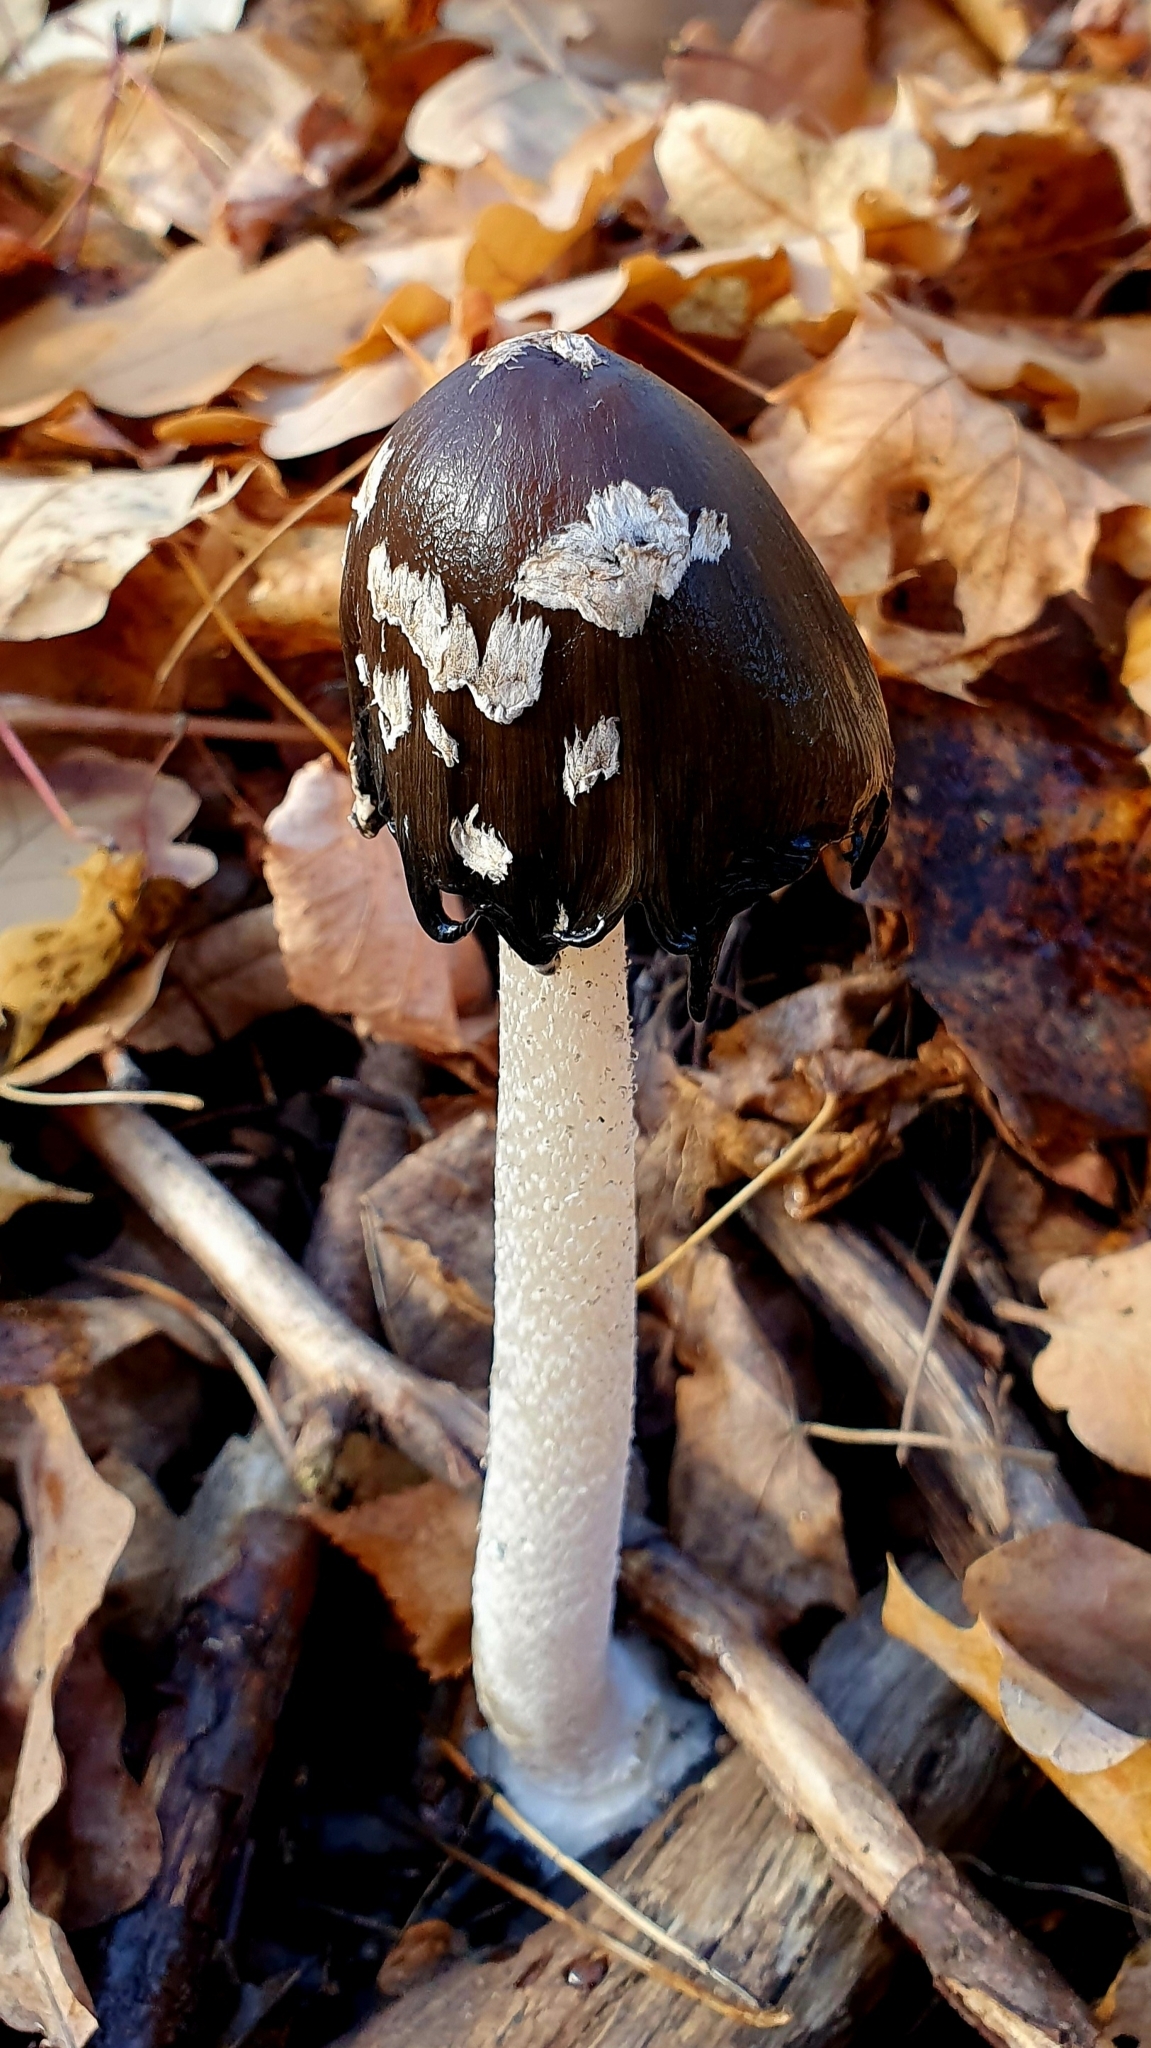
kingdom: Fungi
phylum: Basidiomycota
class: Agaricomycetes
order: Agaricales
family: Psathyrellaceae
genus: Coprinopsis
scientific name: Coprinopsis picacea
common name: Magpie inkcap
